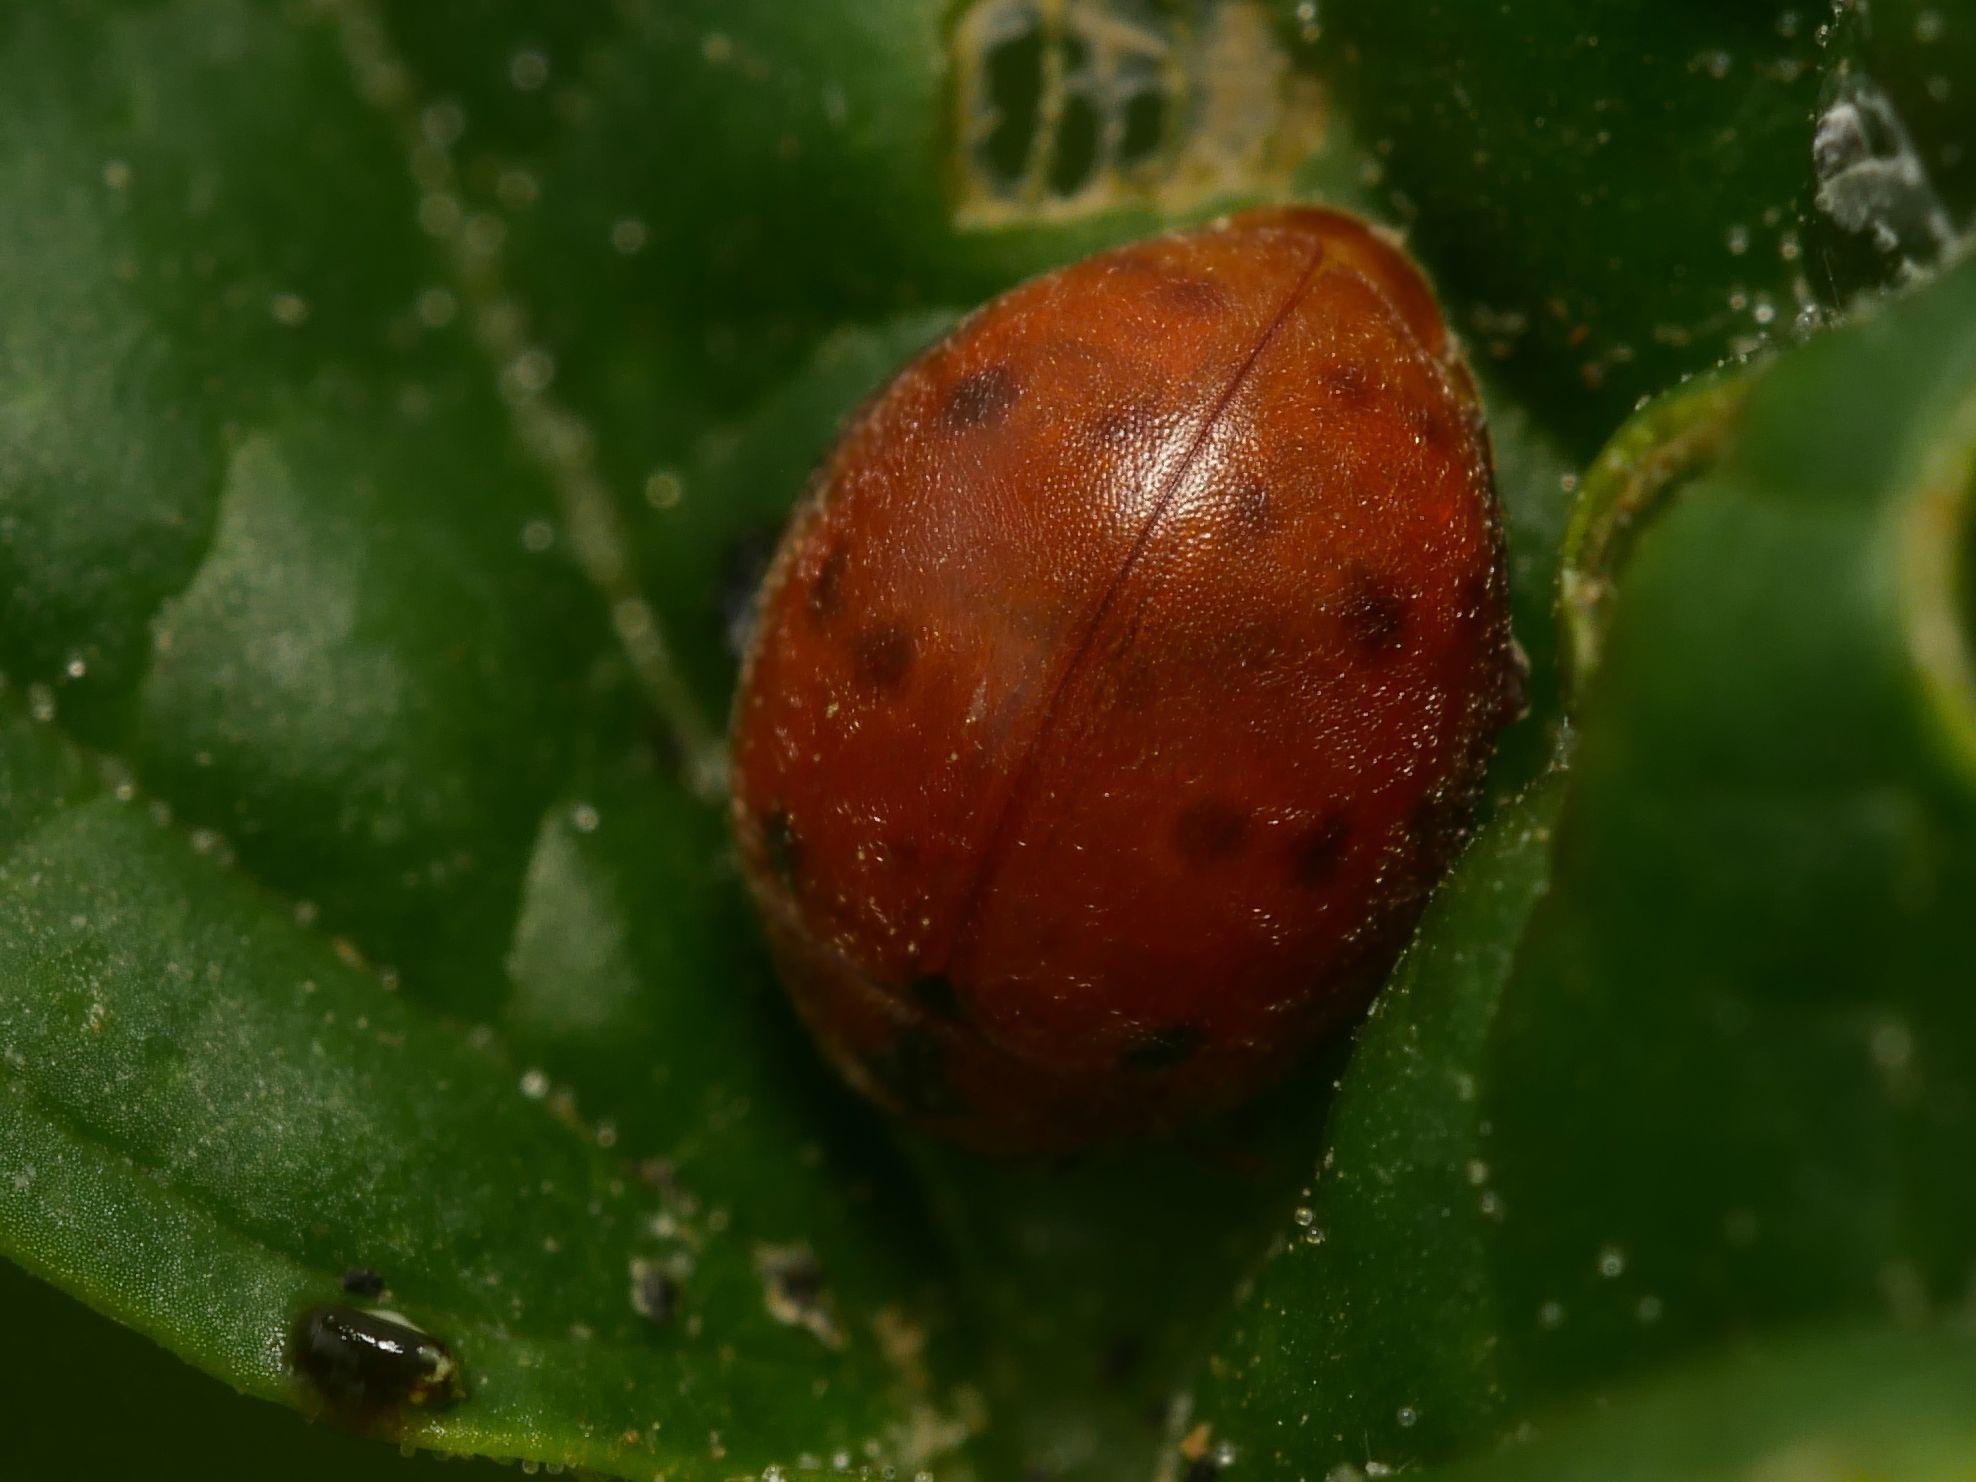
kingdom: Animalia
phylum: Arthropoda
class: Insecta
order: Coleoptera
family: Coccinellidae
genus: Subcoccinella
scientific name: Subcoccinella vigintiquatuorpunctata
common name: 24-spot ladybird
